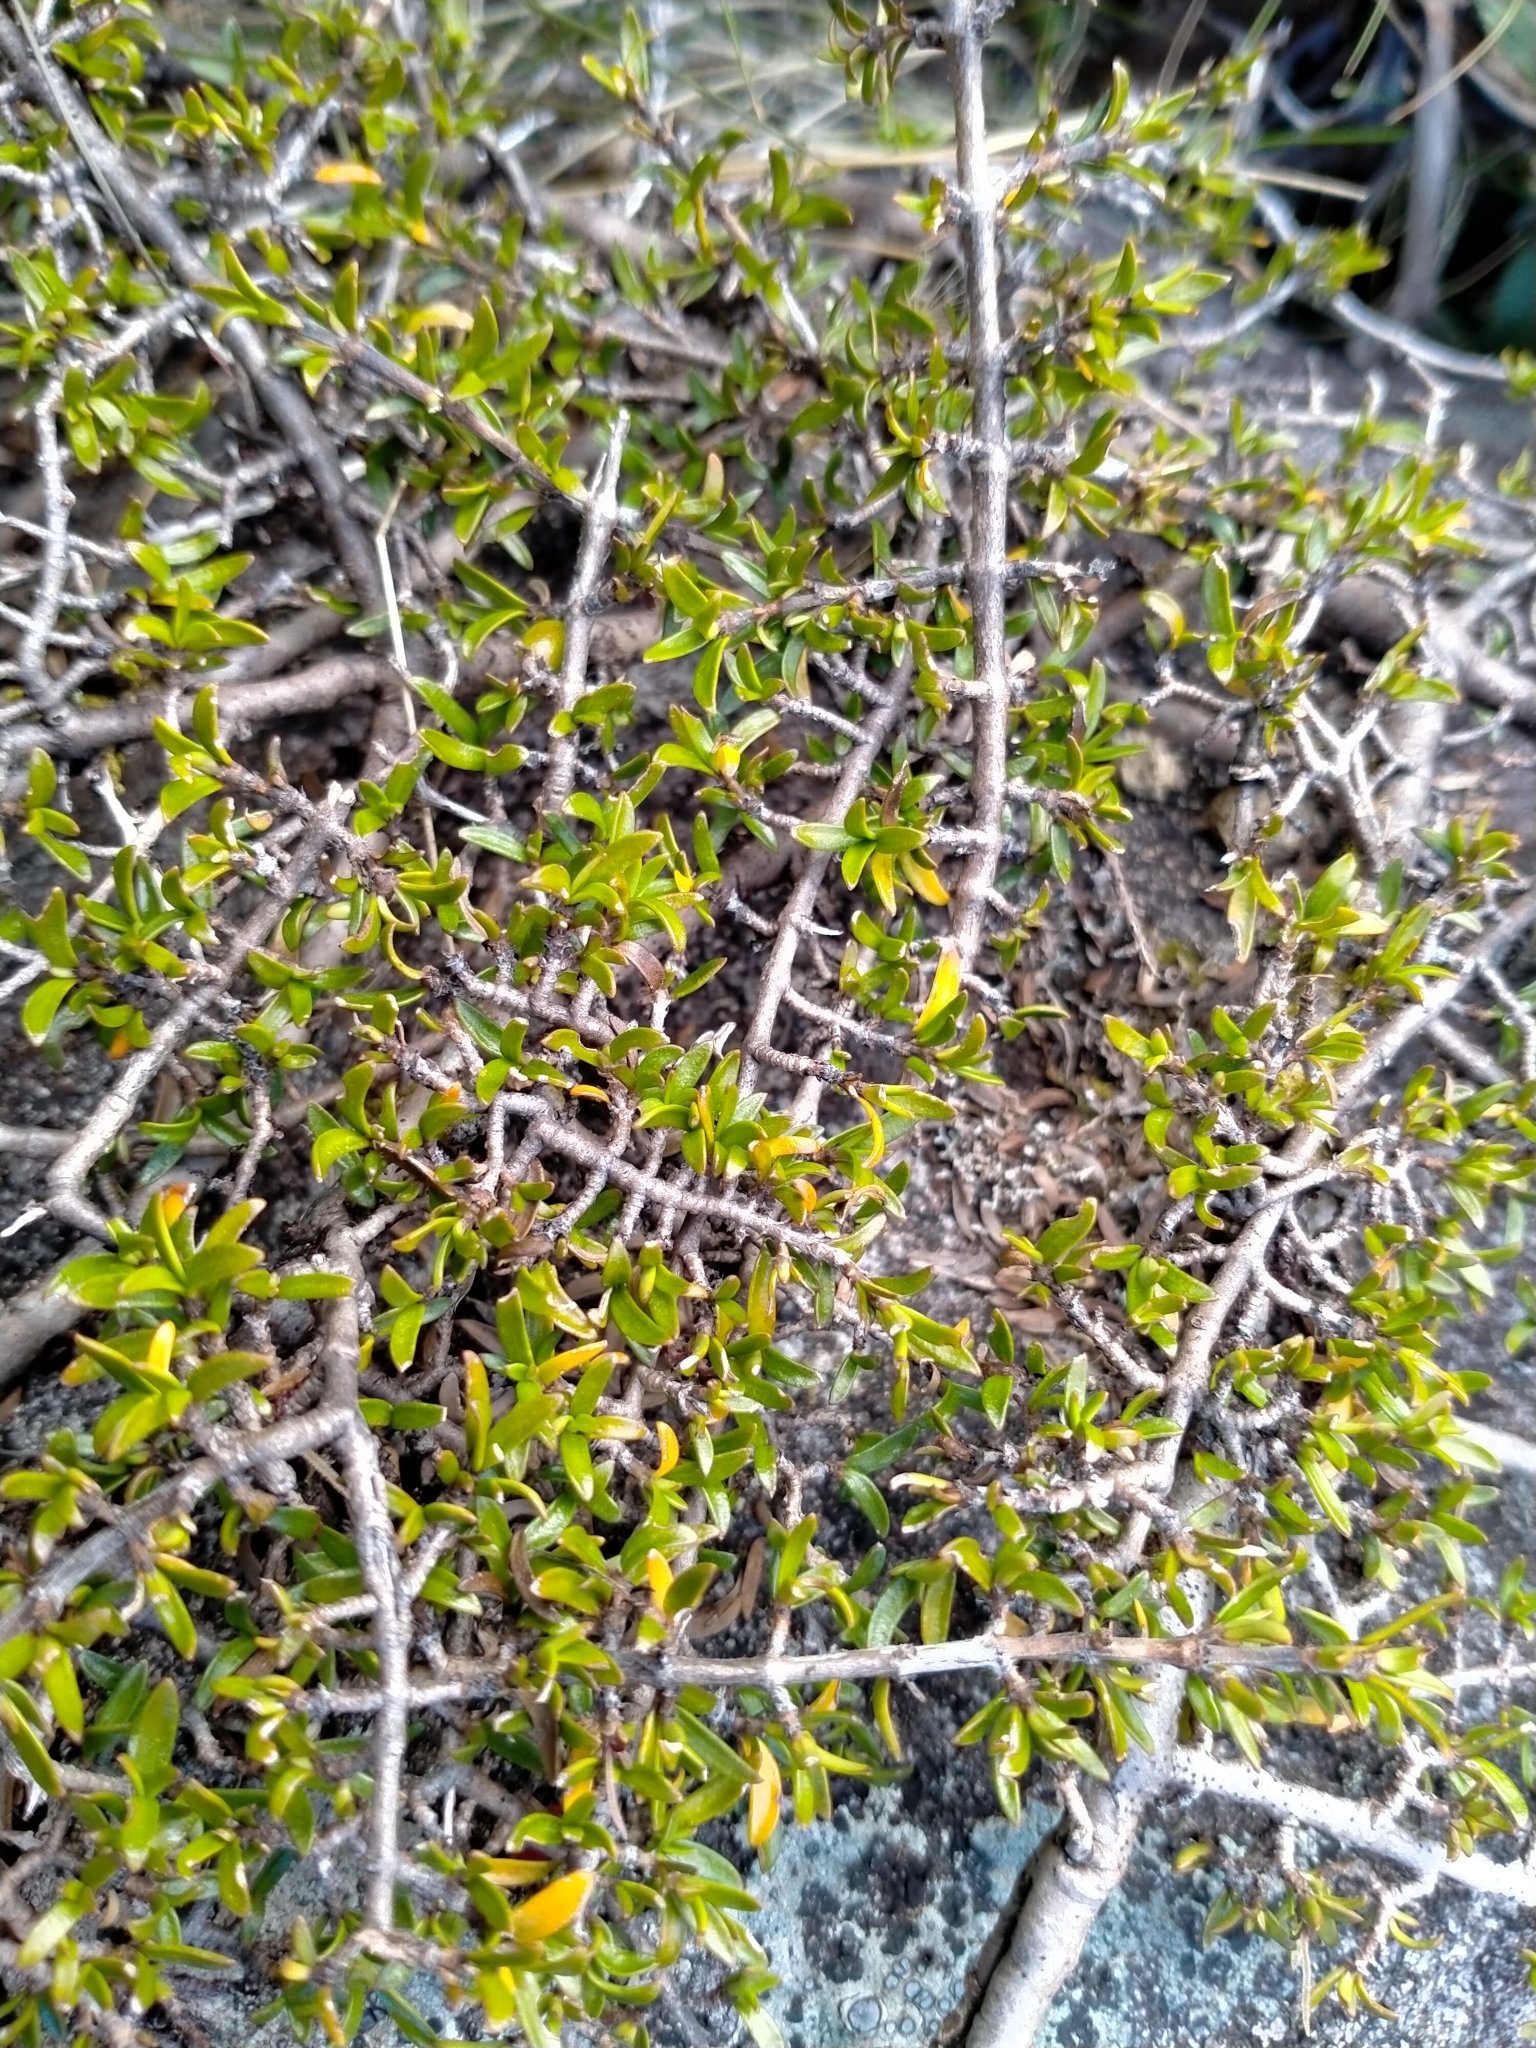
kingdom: Plantae
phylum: Tracheophyta
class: Magnoliopsida
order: Gentianales
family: Rubiaceae
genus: Coprosma
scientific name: Coprosma cheesemanii
